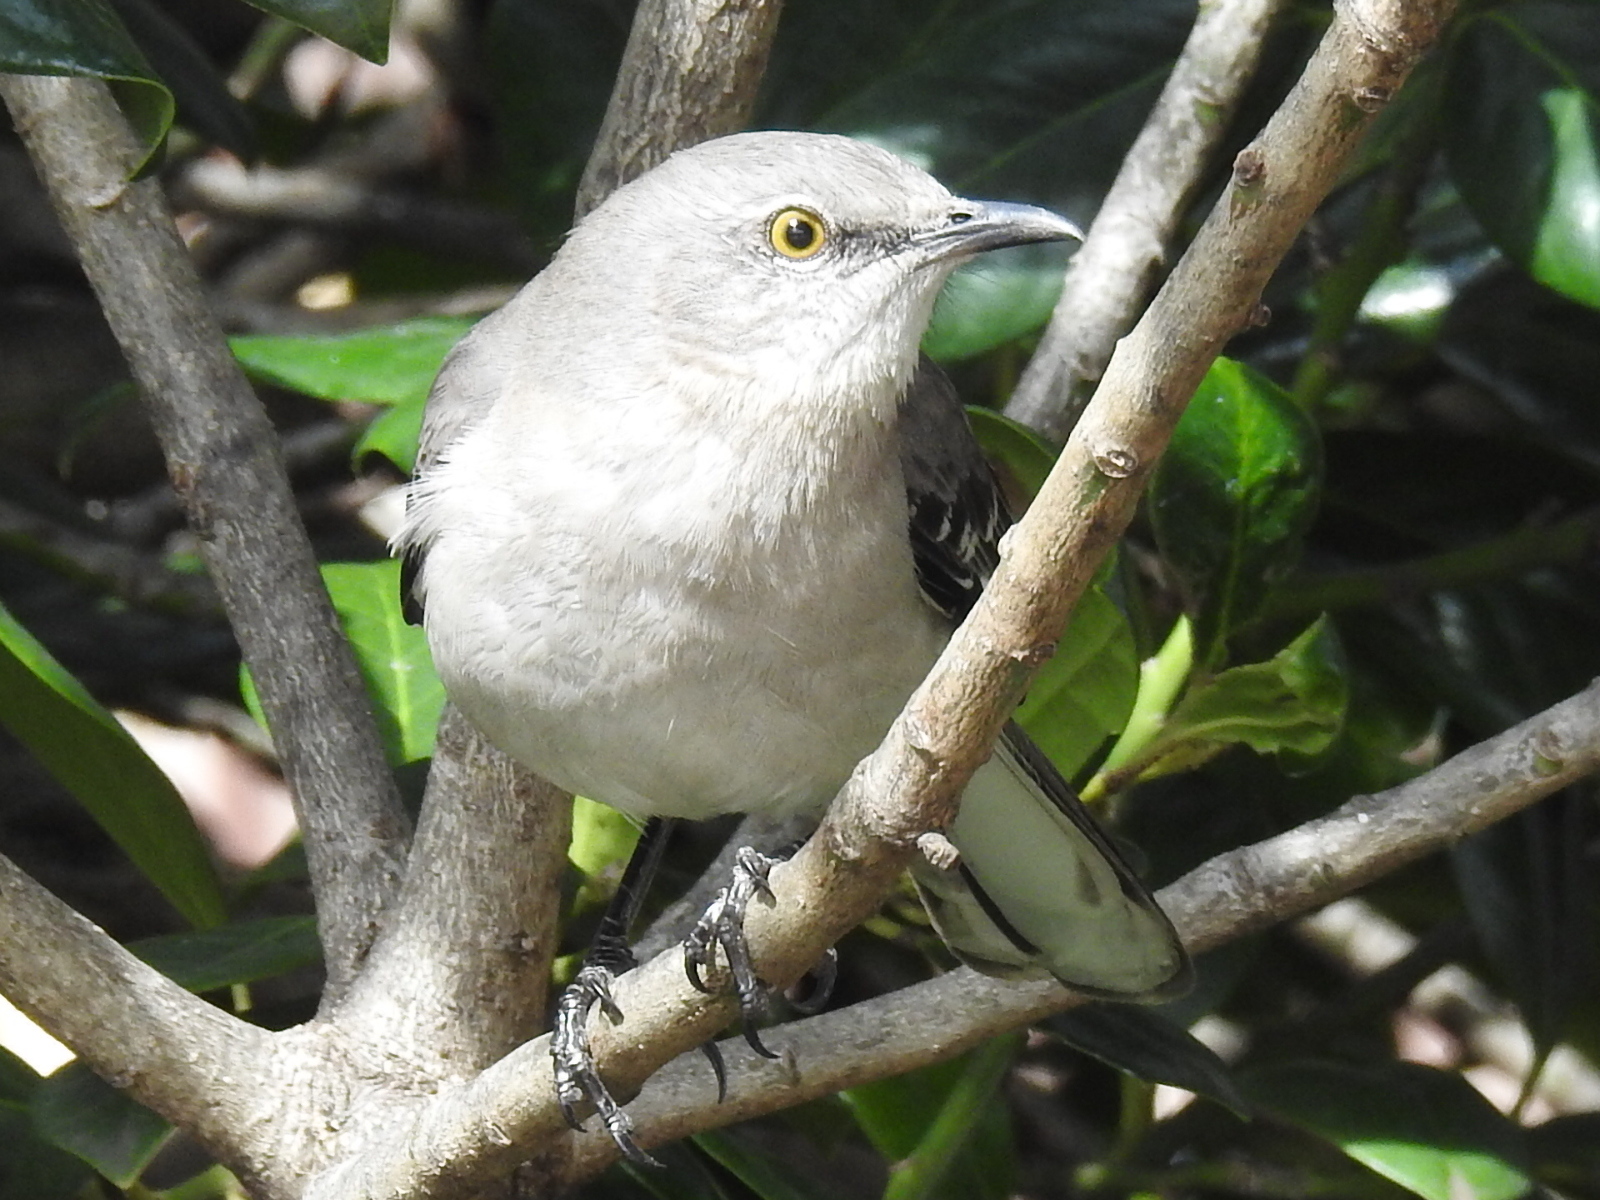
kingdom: Animalia
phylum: Chordata
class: Aves
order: Passeriformes
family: Mimidae
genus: Mimus
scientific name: Mimus polyglottos
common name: Northern mockingbird
